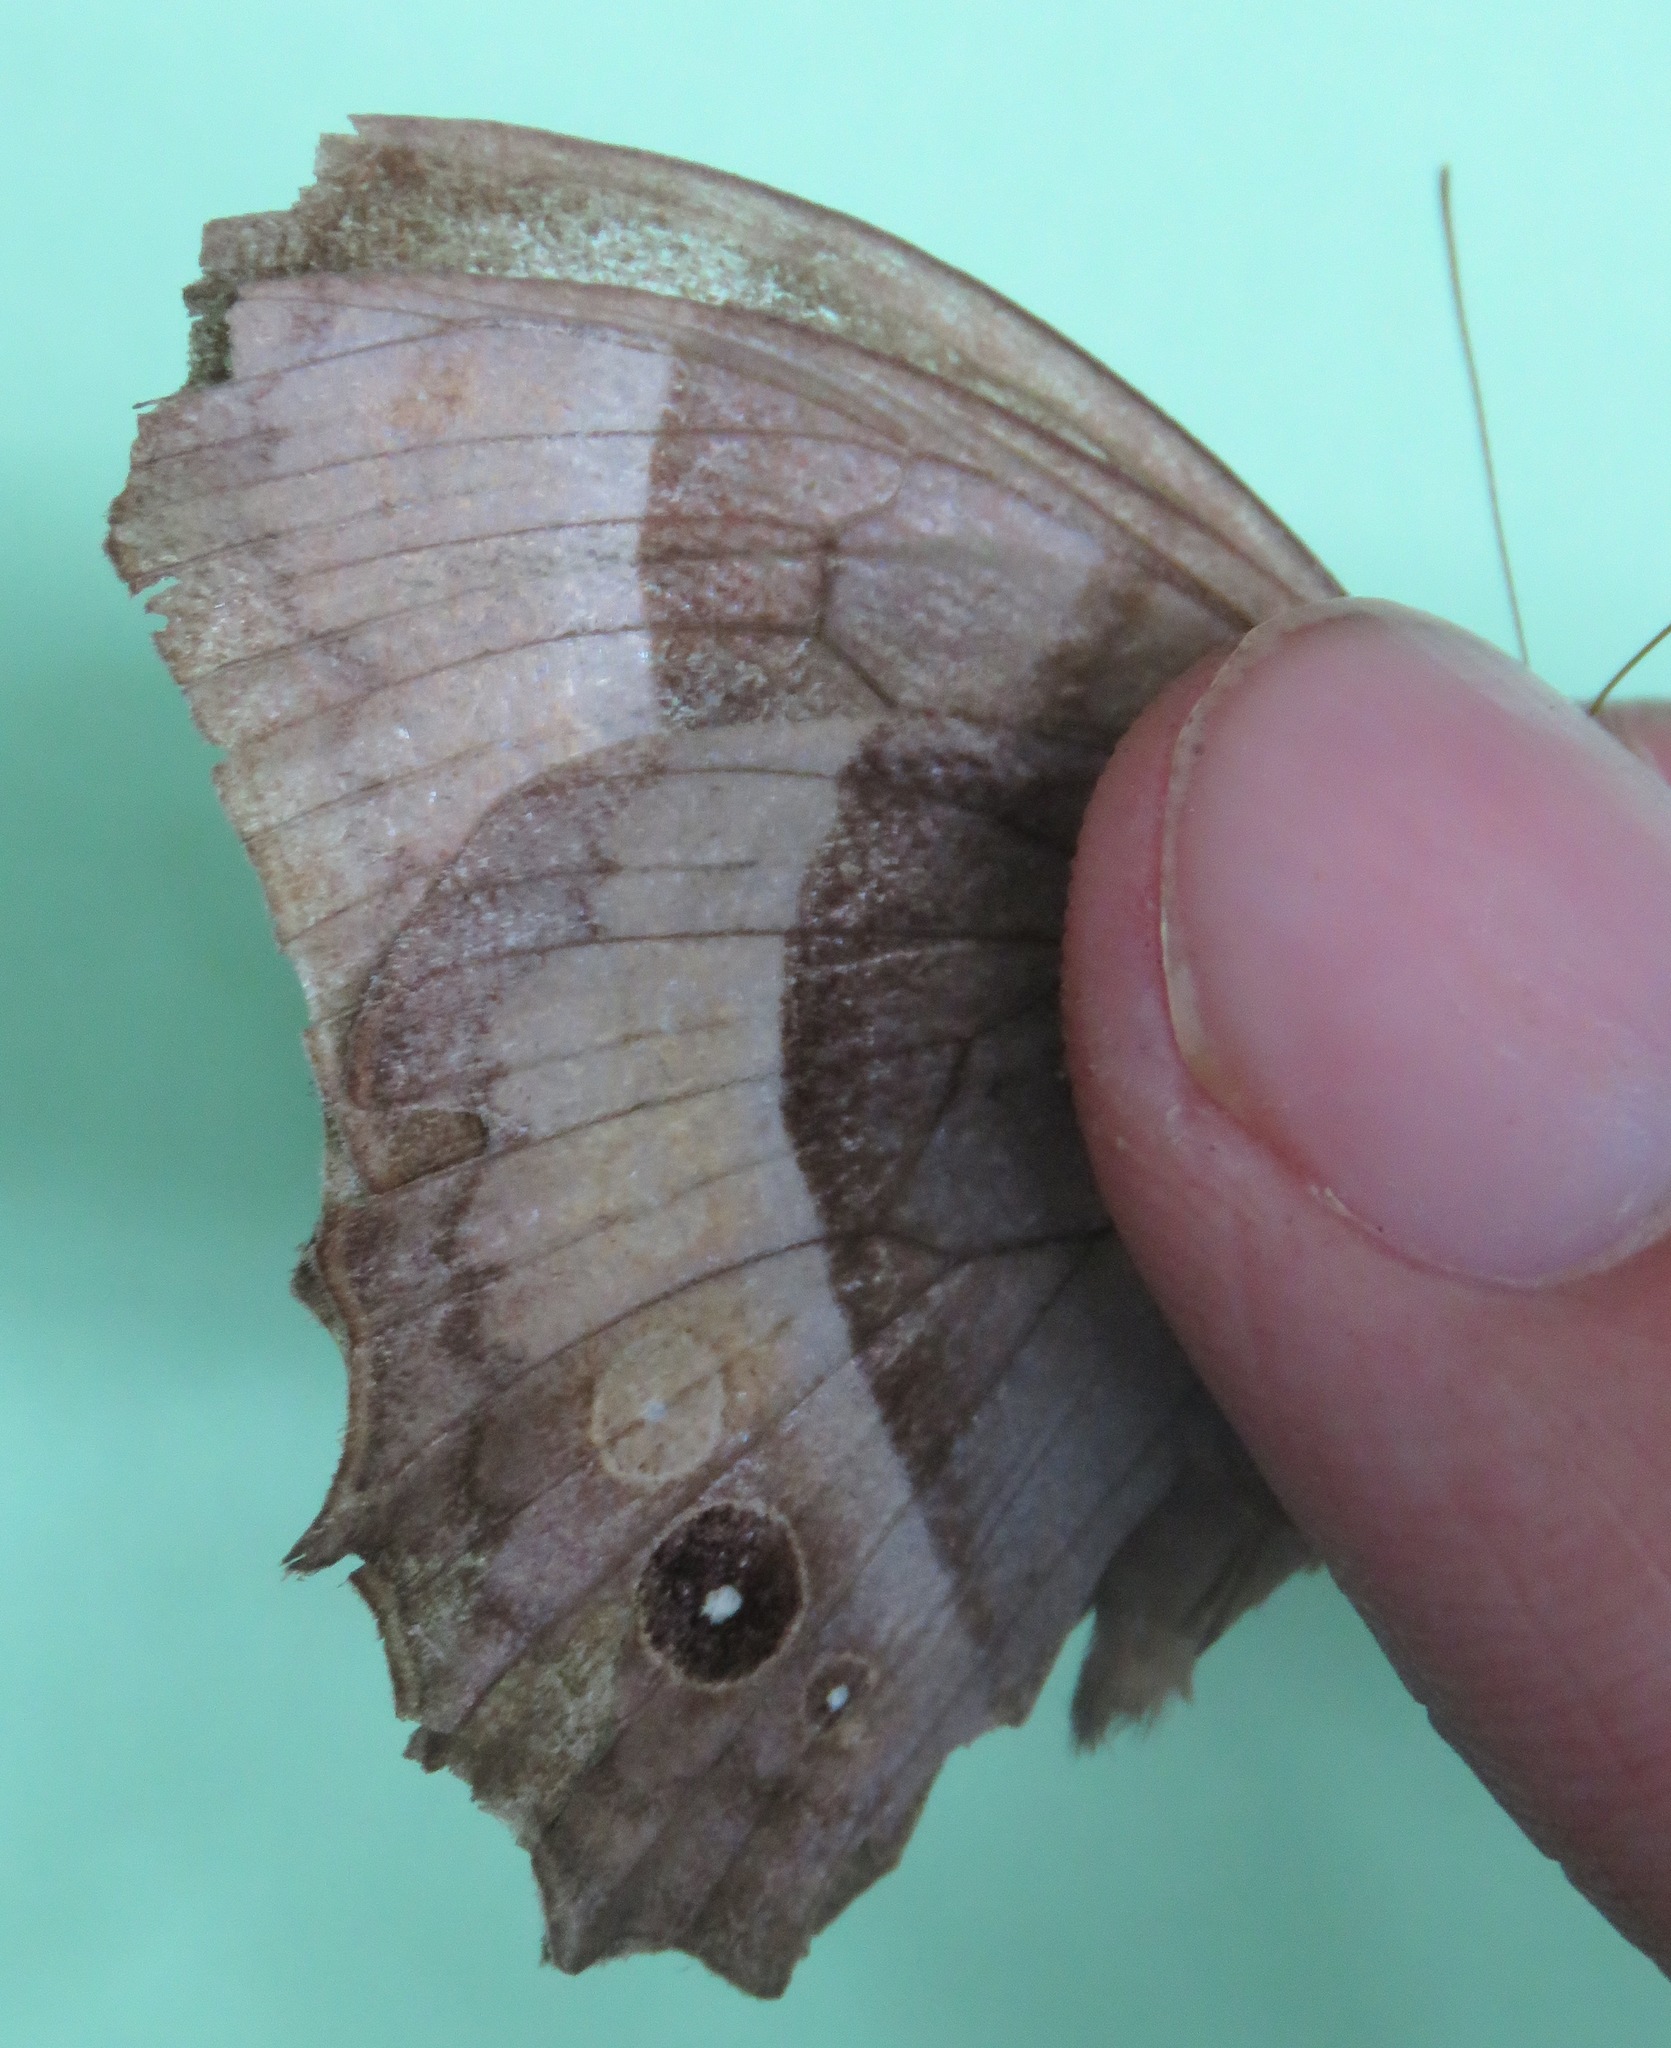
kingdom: Animalia
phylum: Arthropoda
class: Insecta
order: Lepidoptera
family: Nymphalidae
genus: Taygetis
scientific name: Taygetis inconspicua
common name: Inconspicuous satyr
